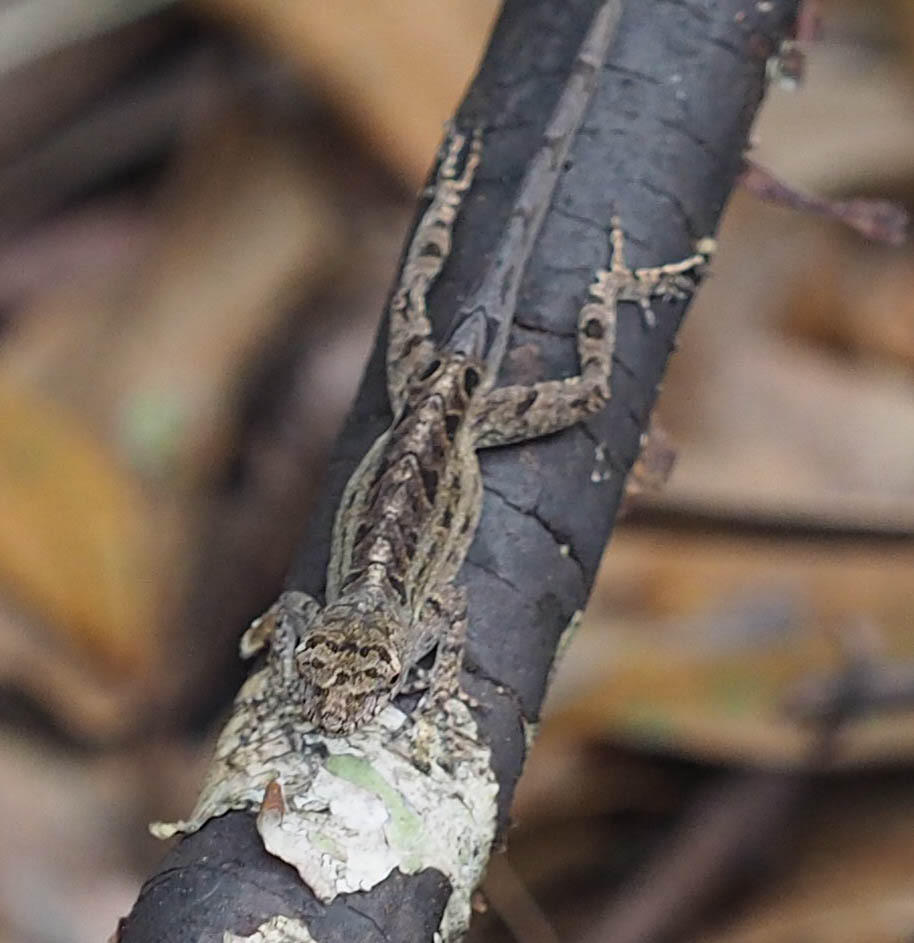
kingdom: Animalia
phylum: Chordata
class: Squamata
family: Dactyloidae
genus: Anolis
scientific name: Anolis sagrei
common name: Brown anole
